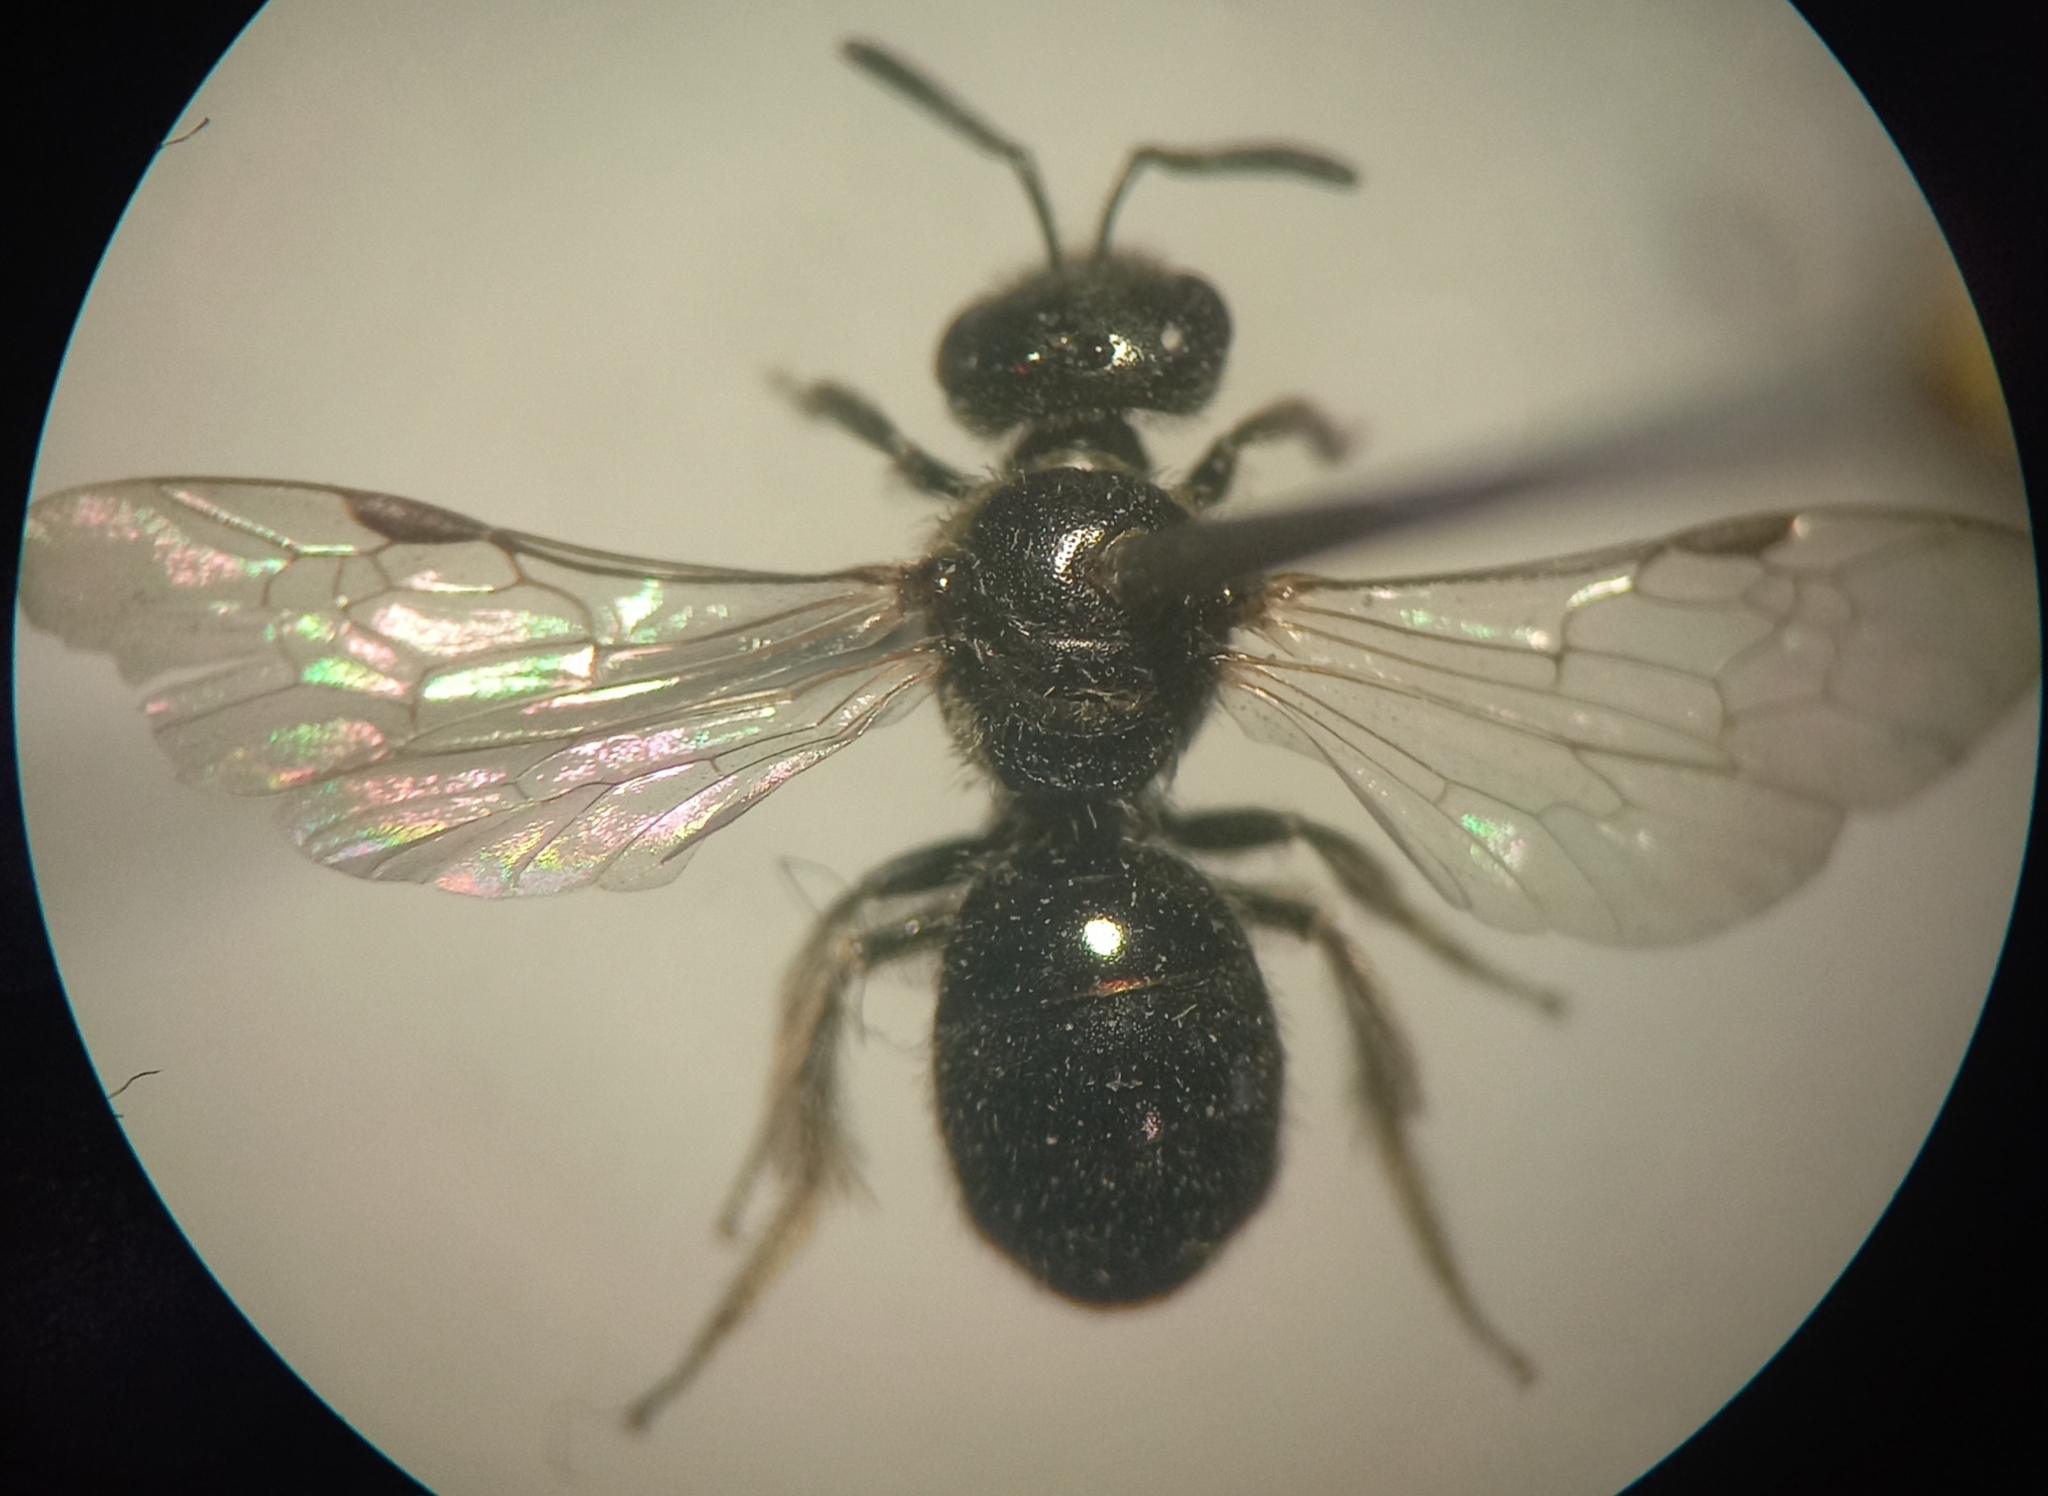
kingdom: Animalia
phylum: Arthropoda
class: Insecta
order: Hymenoptera
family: Halictidae
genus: Lasioglossum
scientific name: Lasioglossum pygmaeum
